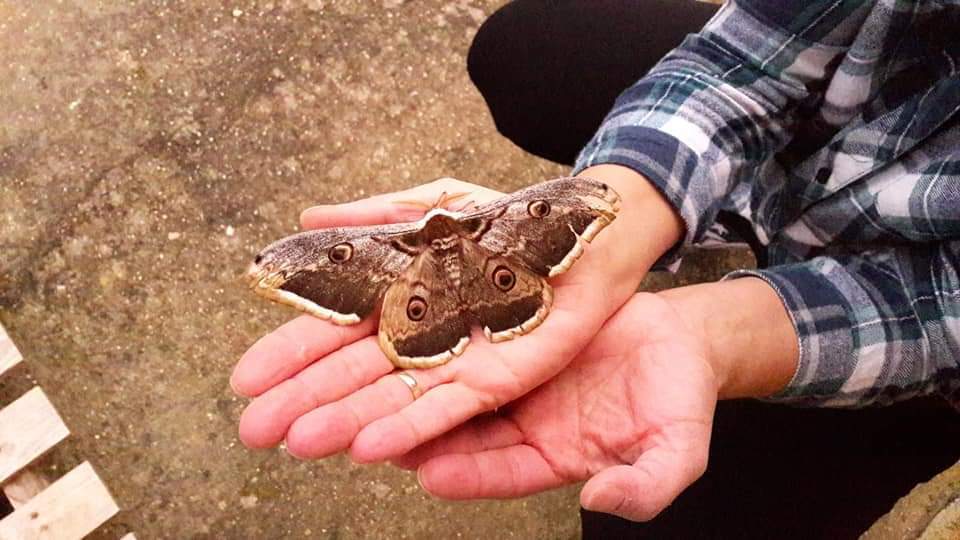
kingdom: Animalia
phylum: Arthropoda
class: Insecta
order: Lepidoptera
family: Saturniidae
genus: Saturnia
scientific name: Saturnia pyri
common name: Great peacock moth
